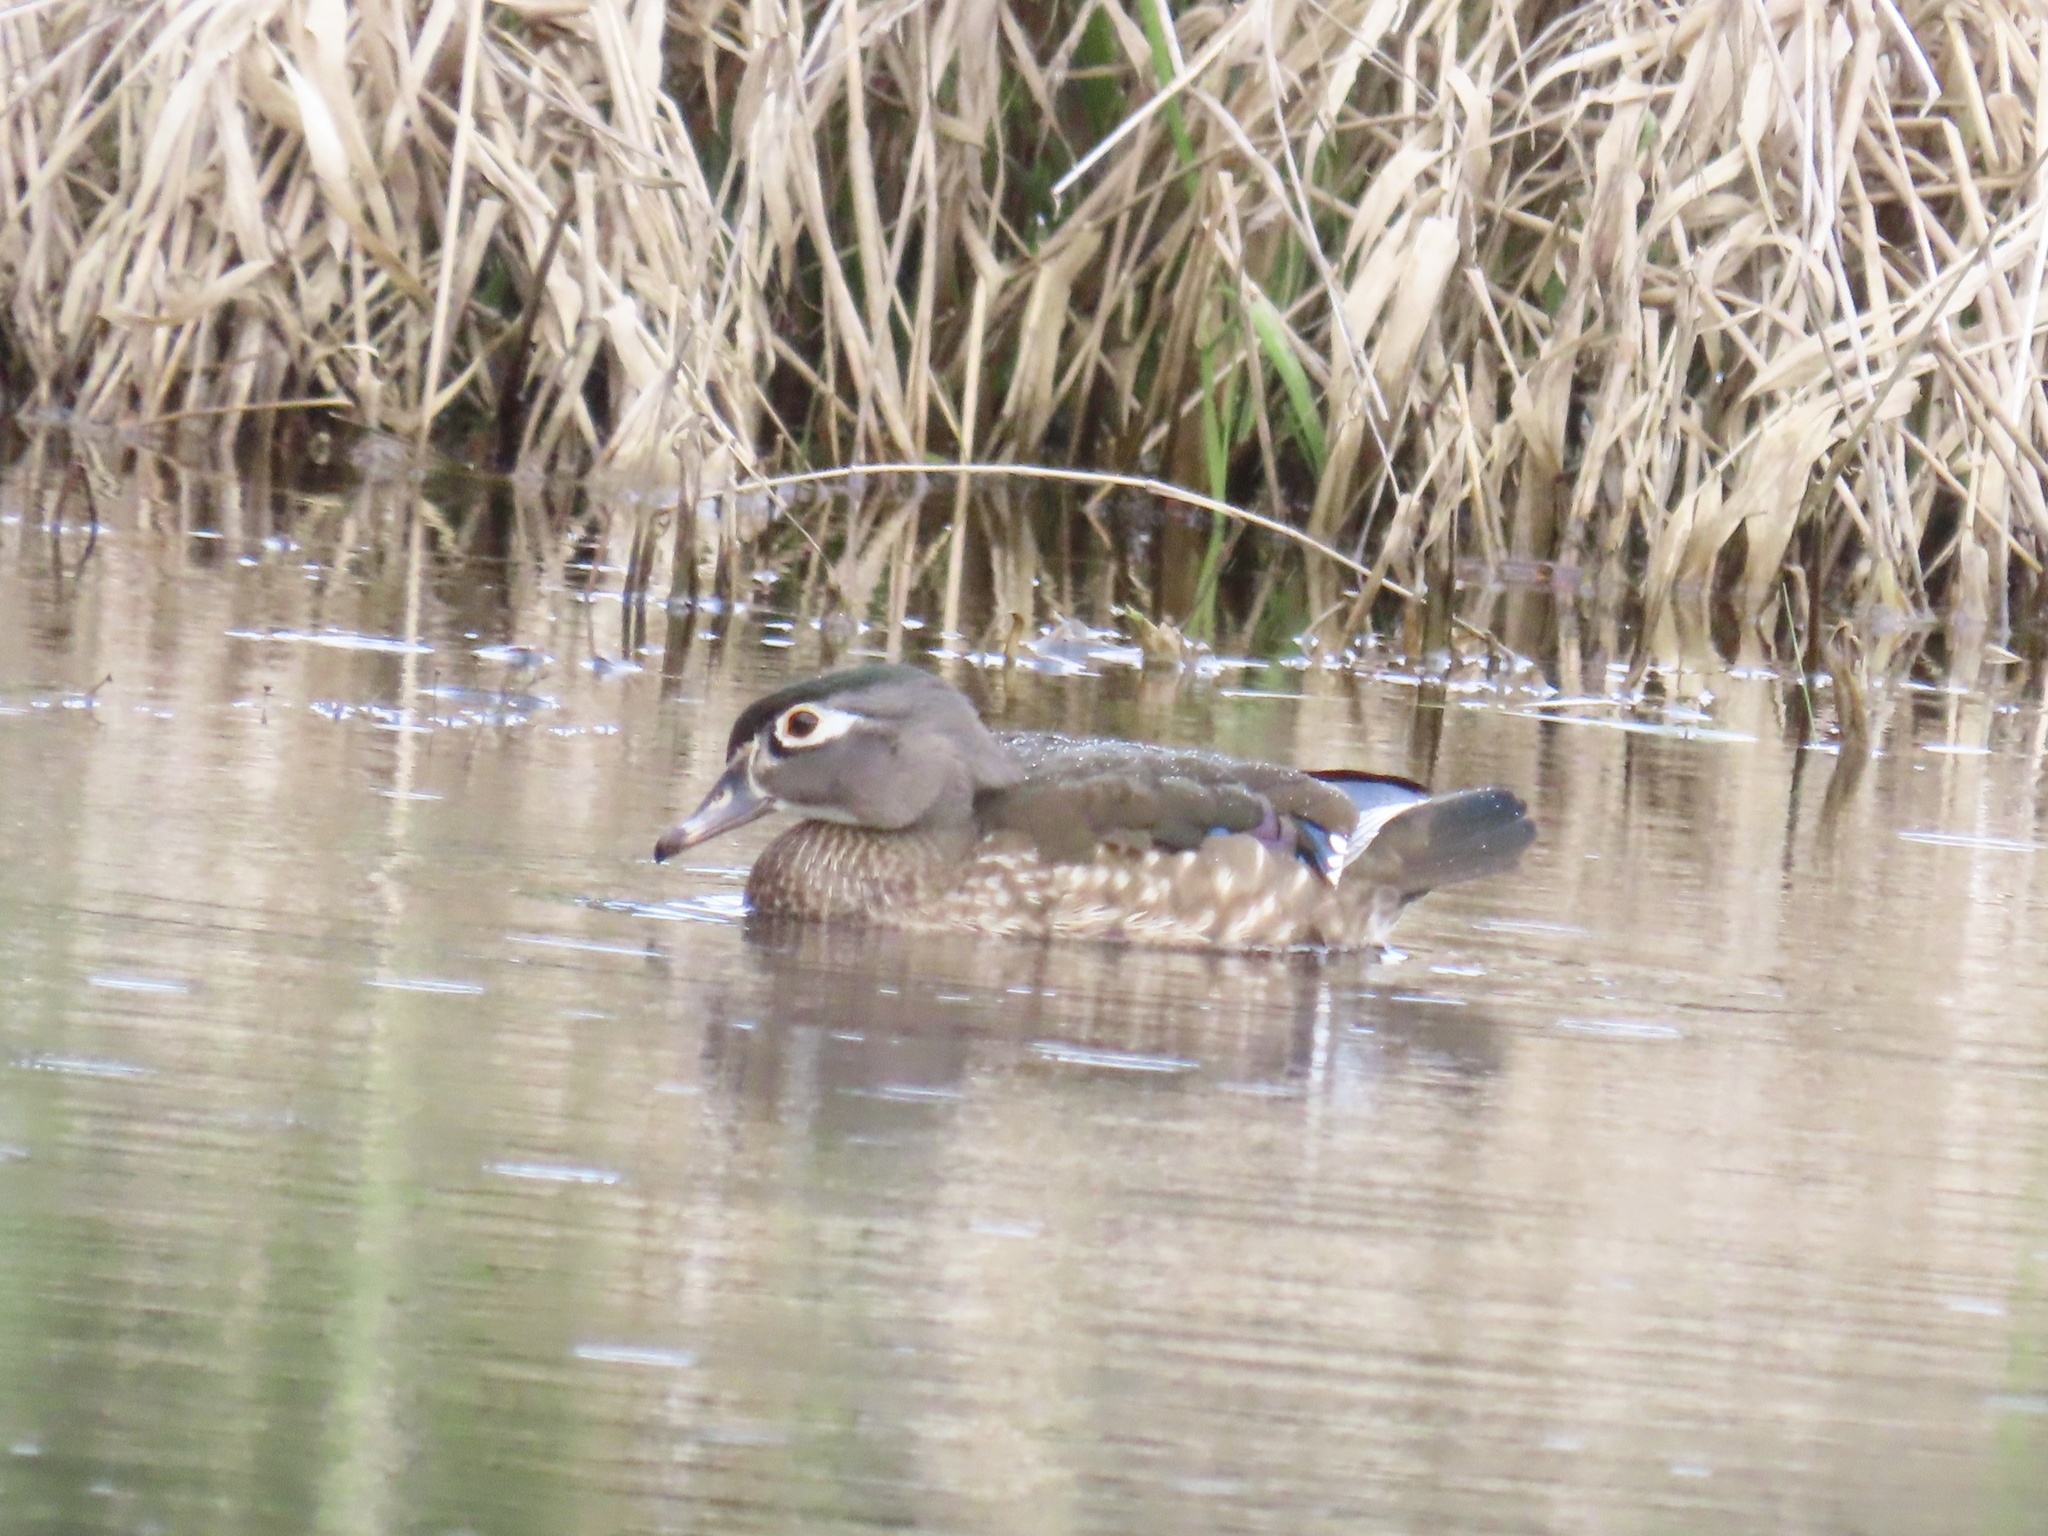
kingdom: Animalia
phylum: Chordata
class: Aves
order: Anseriformes
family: Anatidae
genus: Aix
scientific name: Aix sponsa
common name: Wood duck
